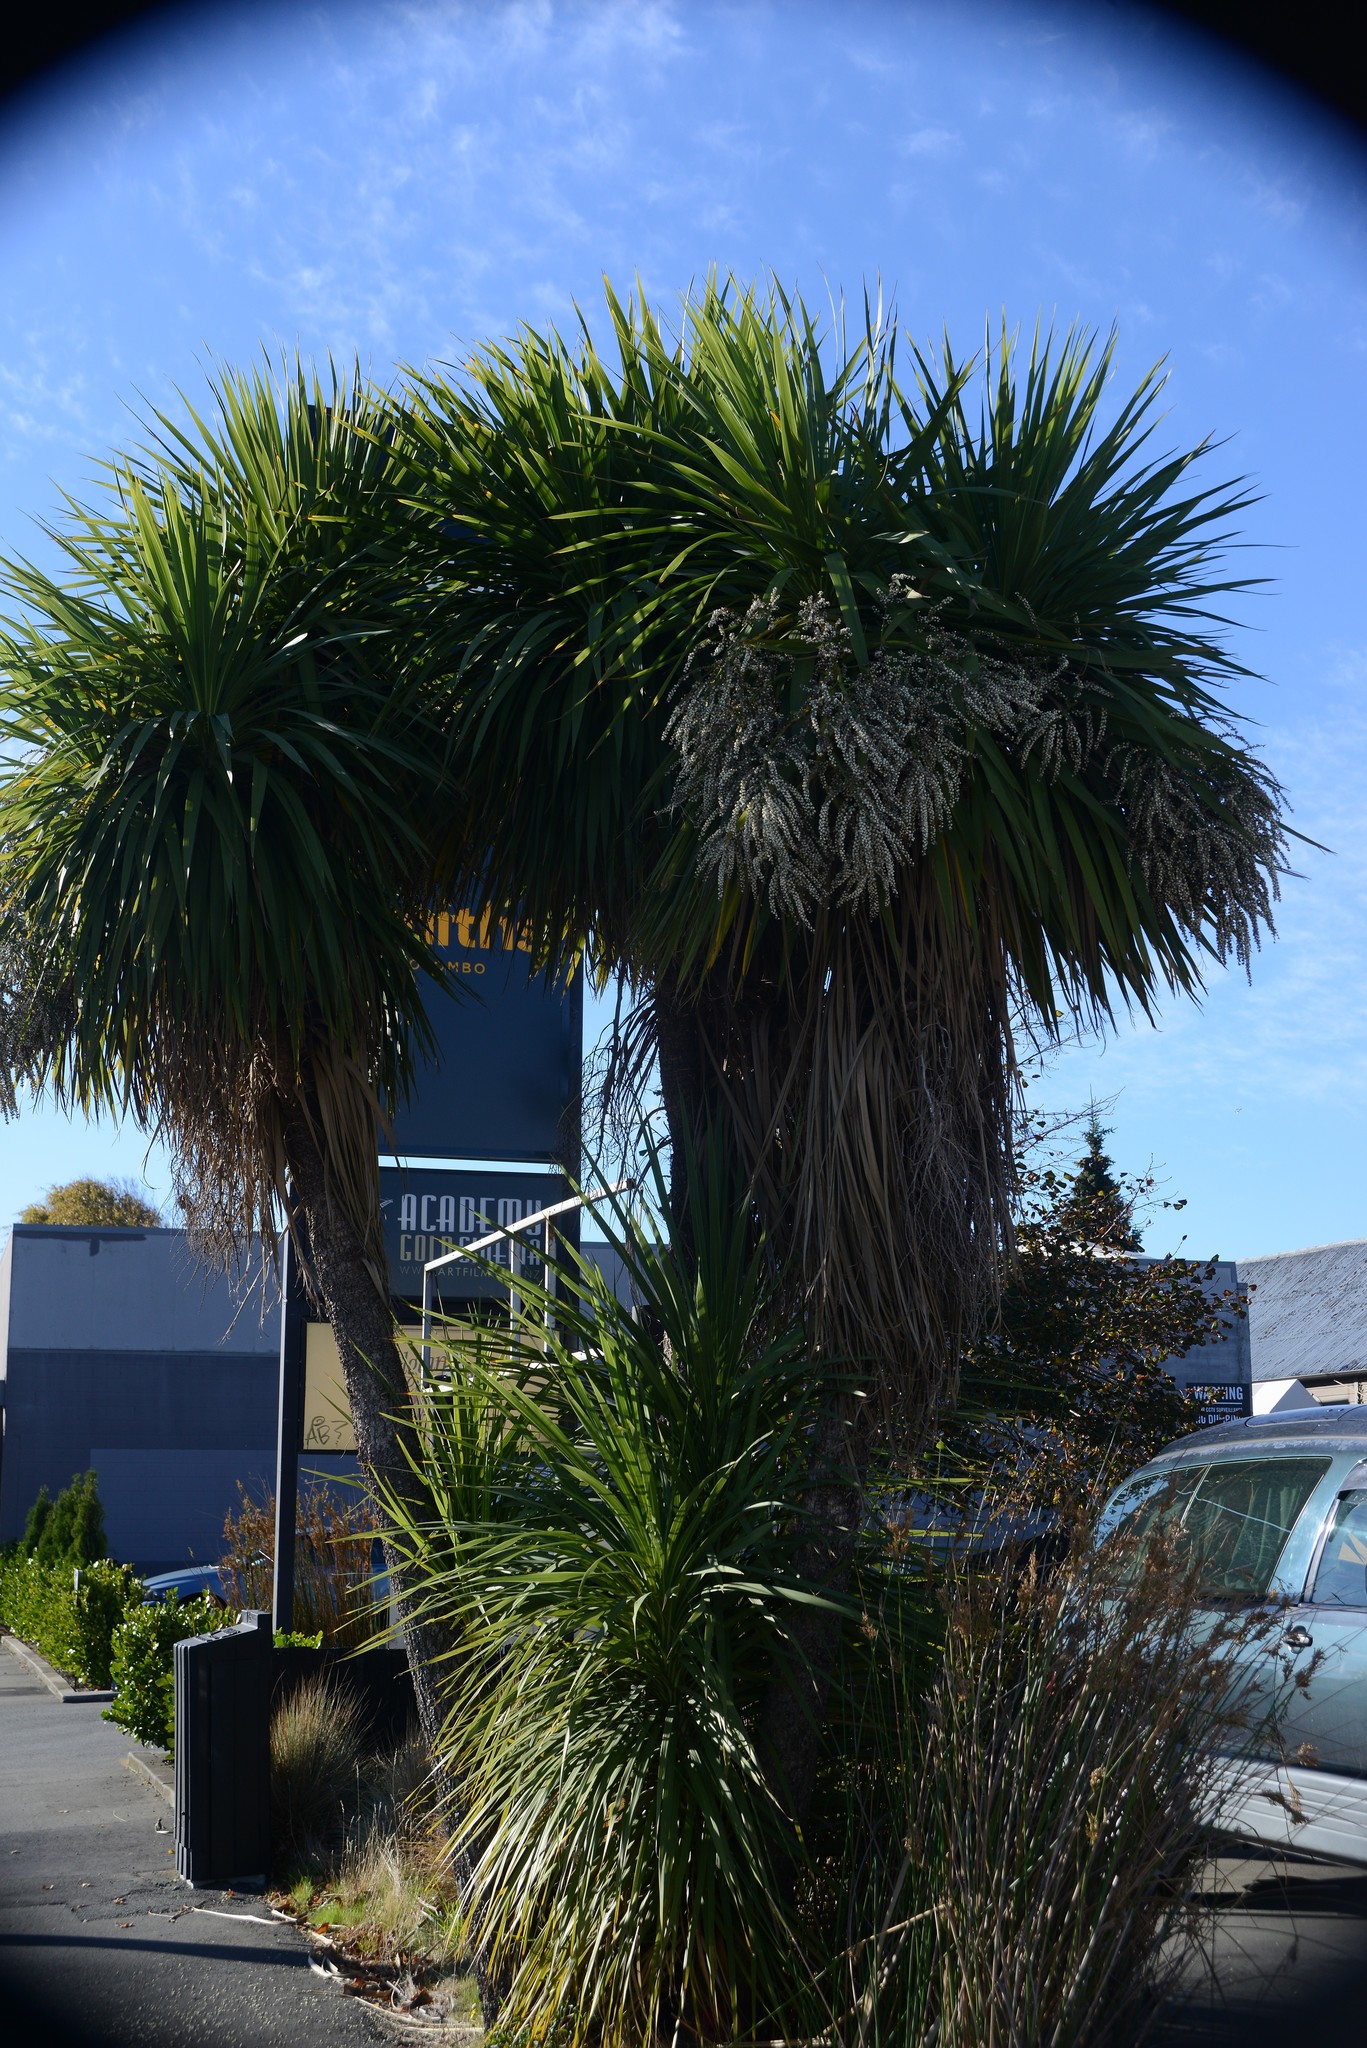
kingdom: Plantae
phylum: Tracheophyta
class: Liliopsida
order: Asparagales
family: Asparagaceae
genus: Cordyline
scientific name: Cordyline australis
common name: Cabbage-palm
